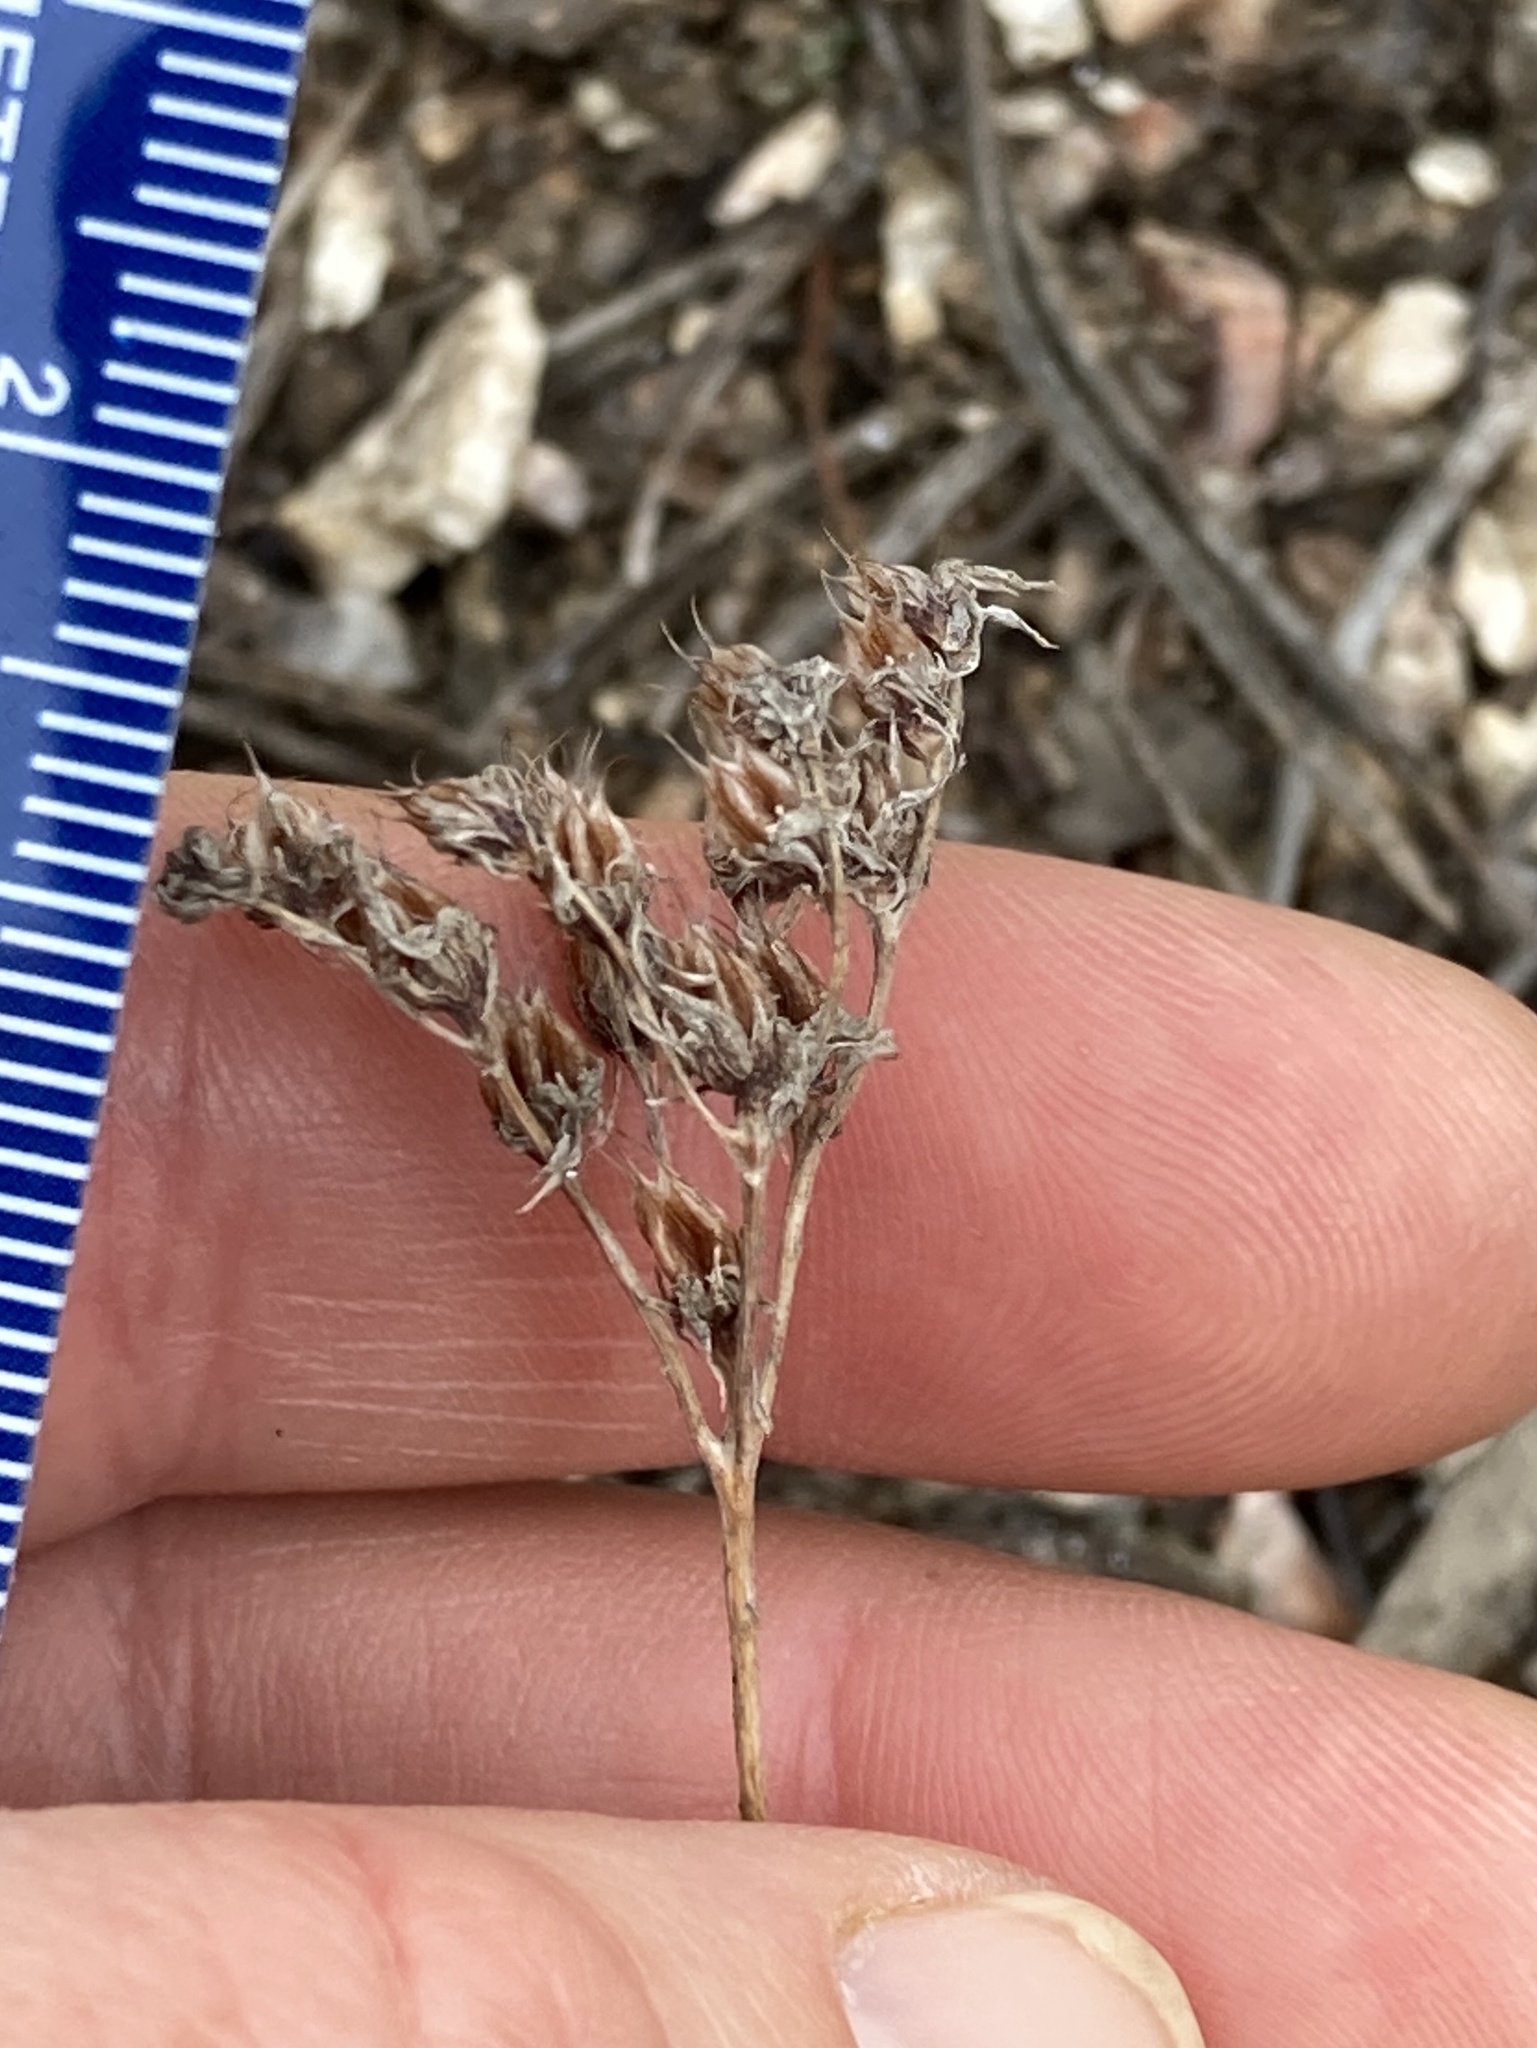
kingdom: Plantae
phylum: Tracheophyta
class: Magnoliopsida
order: Saxifragales
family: Crassulaceae
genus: Sedum
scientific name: Sedum lanceolatum
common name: Common stonecrop
